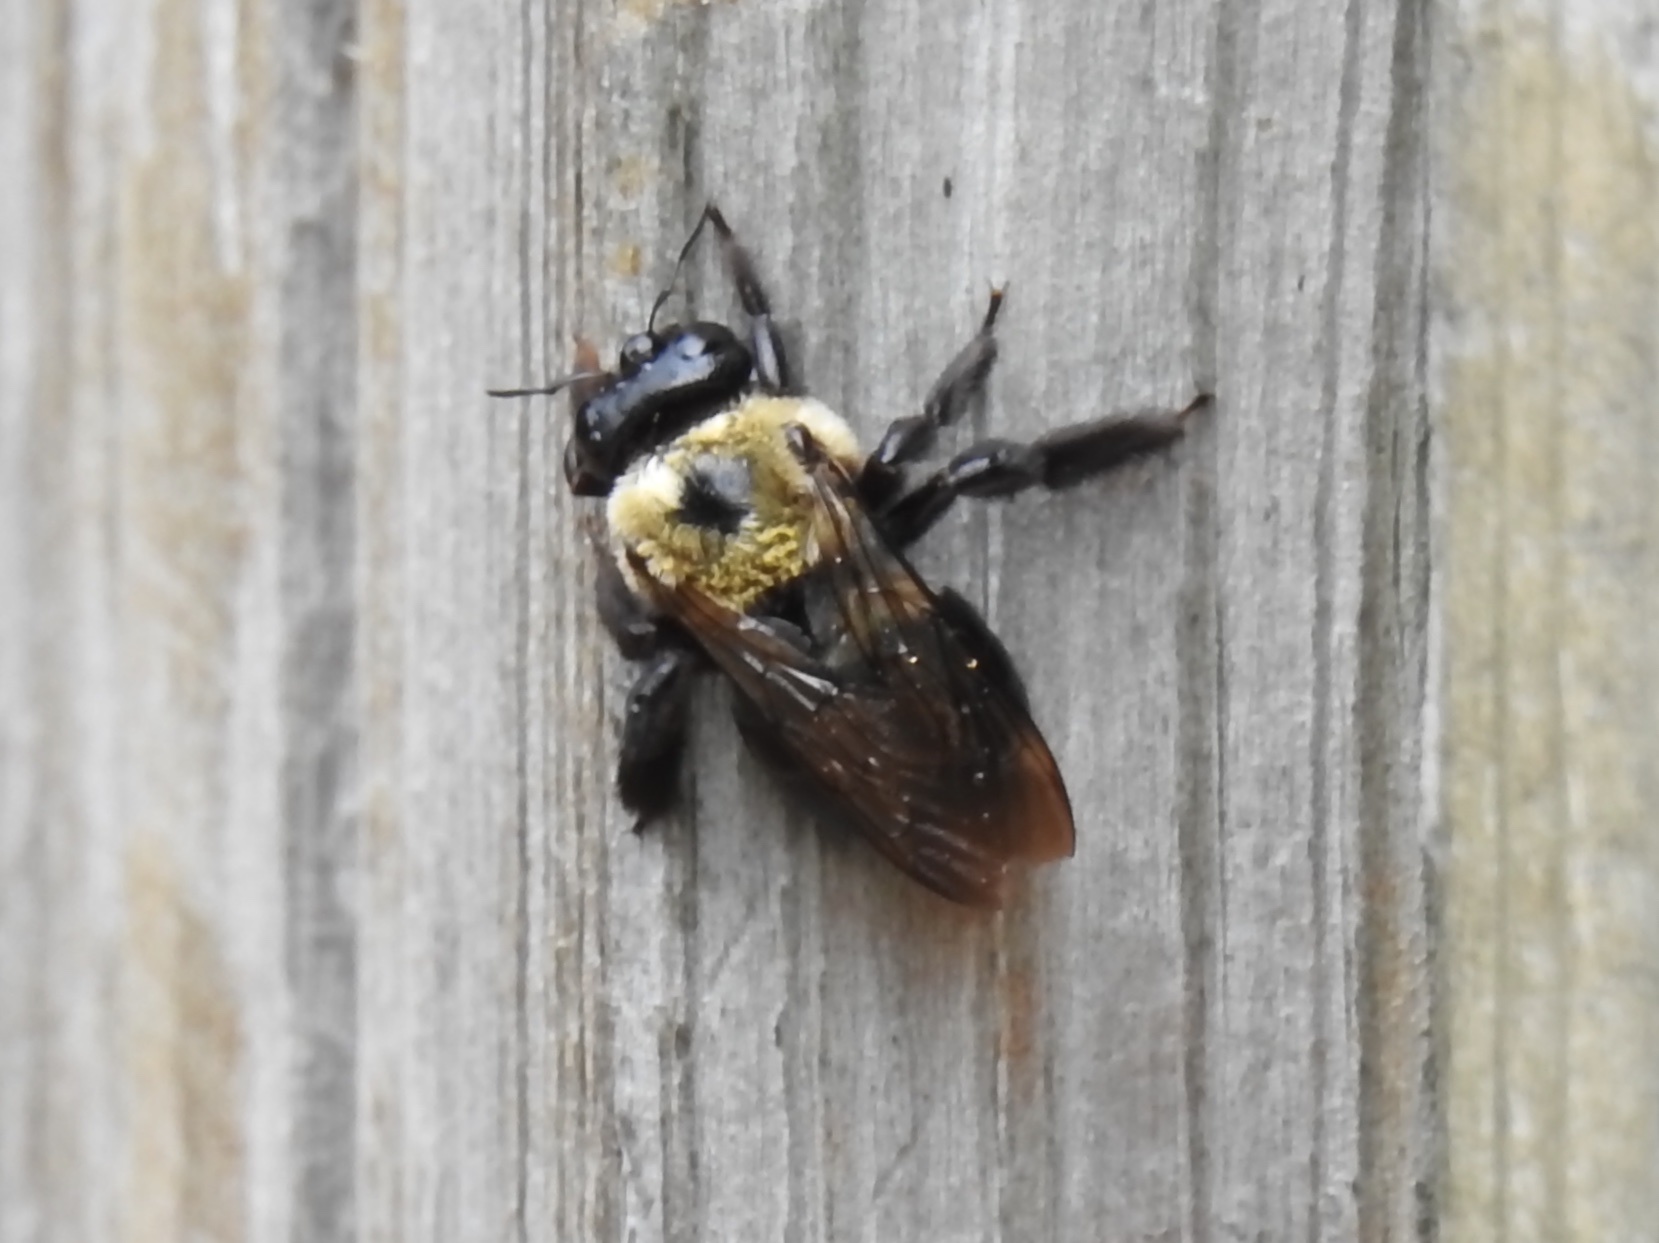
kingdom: Animalia
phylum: Arthropoda
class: Insecta
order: Hymenoptera
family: Apidae
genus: Xylocopa
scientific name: Xylocopa virginica
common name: Carpenter bee
